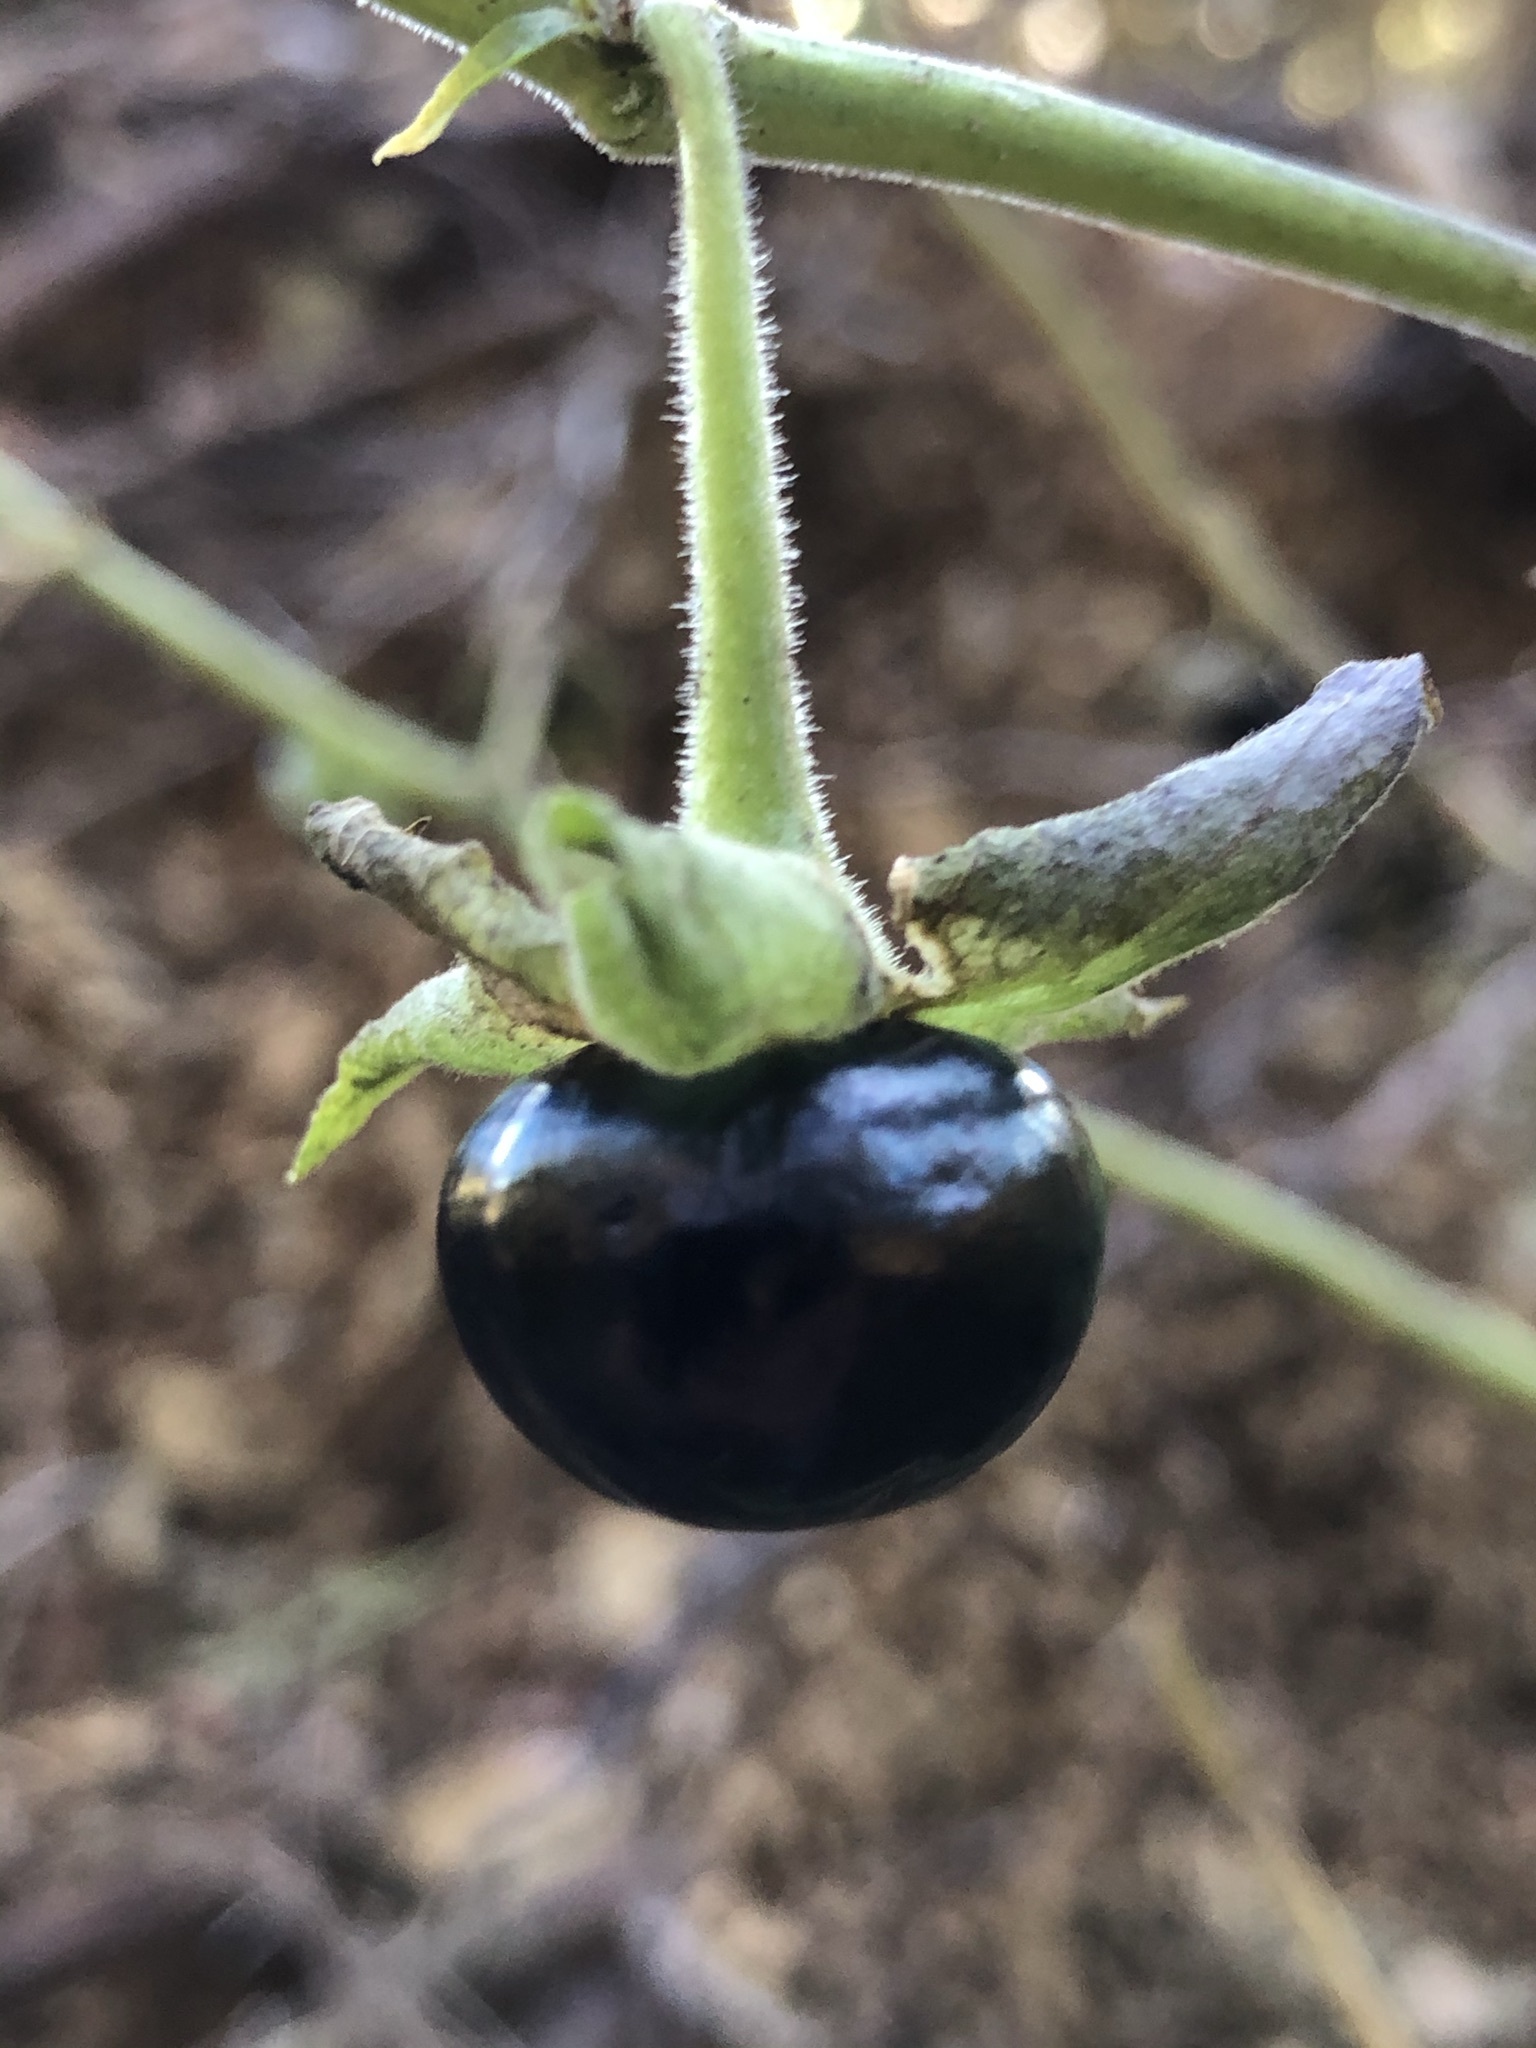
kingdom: Plantae
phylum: Tracheophyta
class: Magnoliopsida
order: Solanales
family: Solanaceae
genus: Atropa
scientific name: Atropa belladonna
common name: Deadly nightshade
